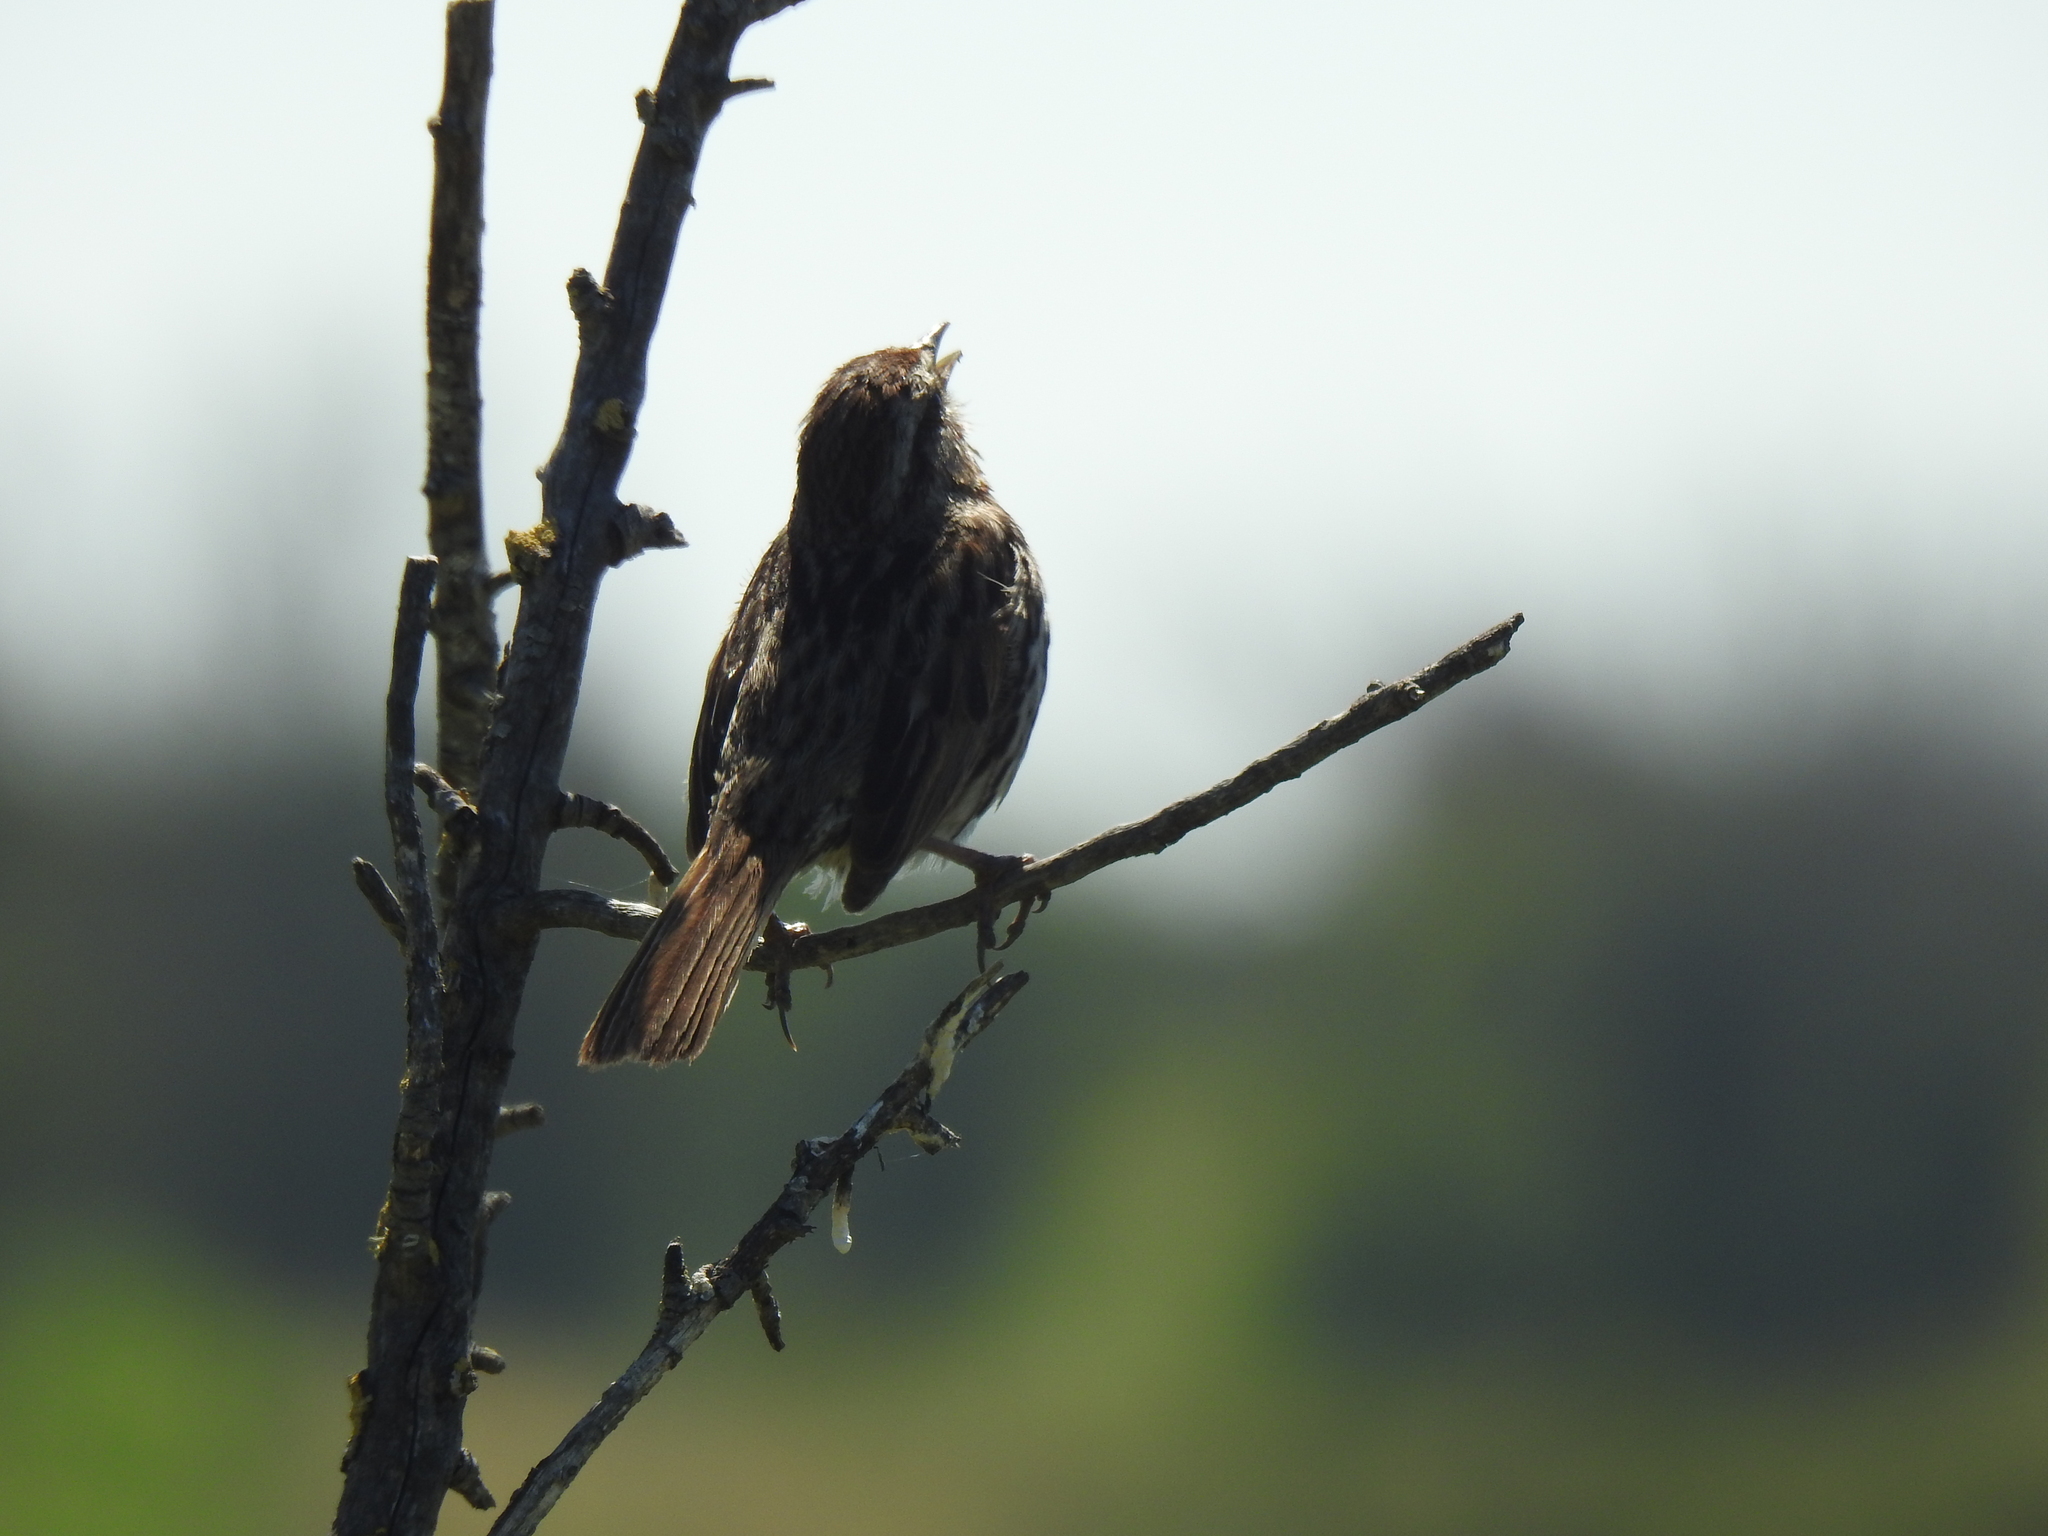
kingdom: Animalia
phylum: Chordata
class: Aves
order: Passeriformes
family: Passerellidae
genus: Melospiza
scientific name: Melospiza melodia
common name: Song sparrow
